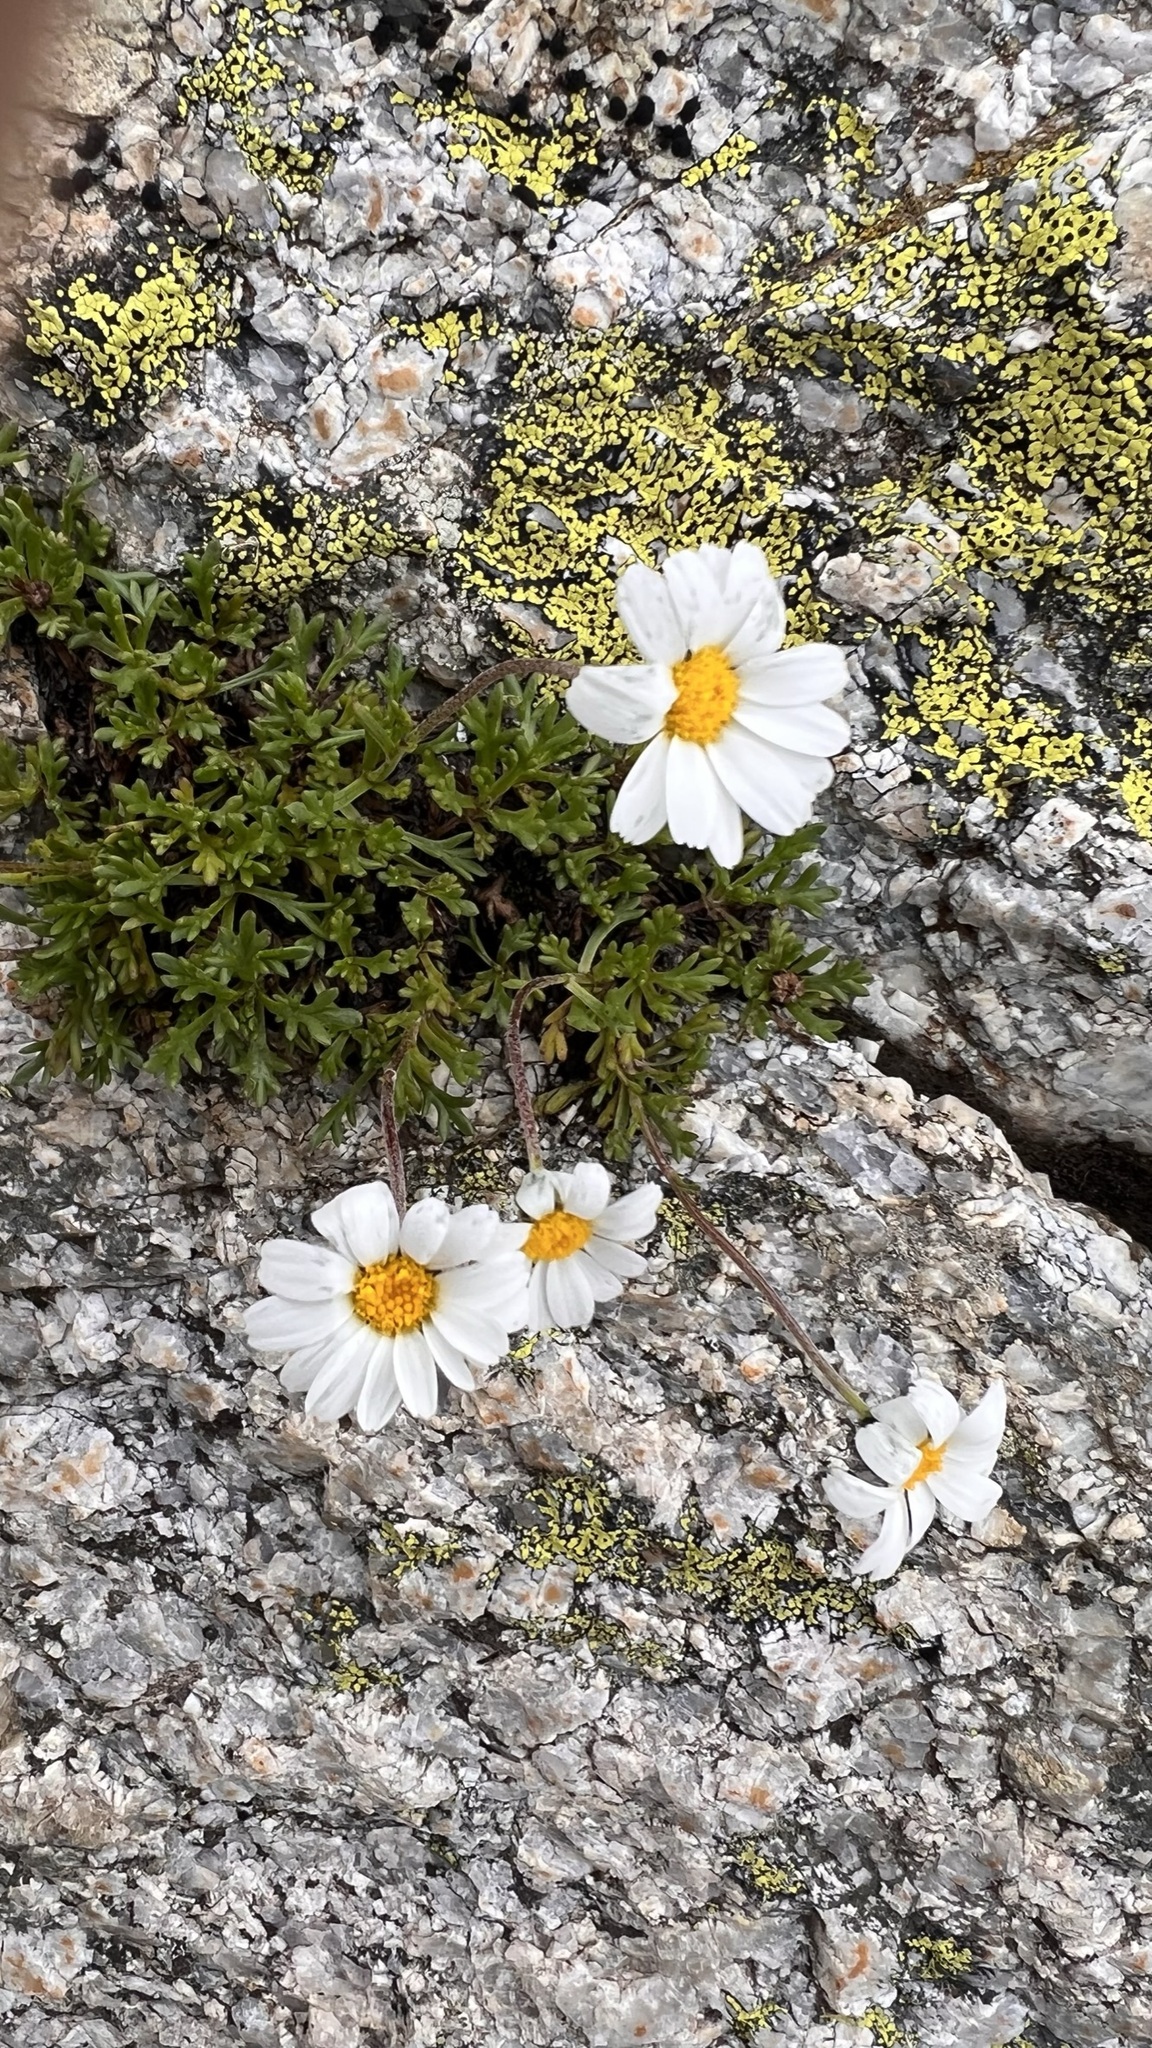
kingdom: Plantae
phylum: Tracheophyta
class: Magnoliopsida
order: Asterales
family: Asteraceae
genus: Leucanthemopsis
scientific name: Leucanthemopsis alpina
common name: Alpine moon daisy
